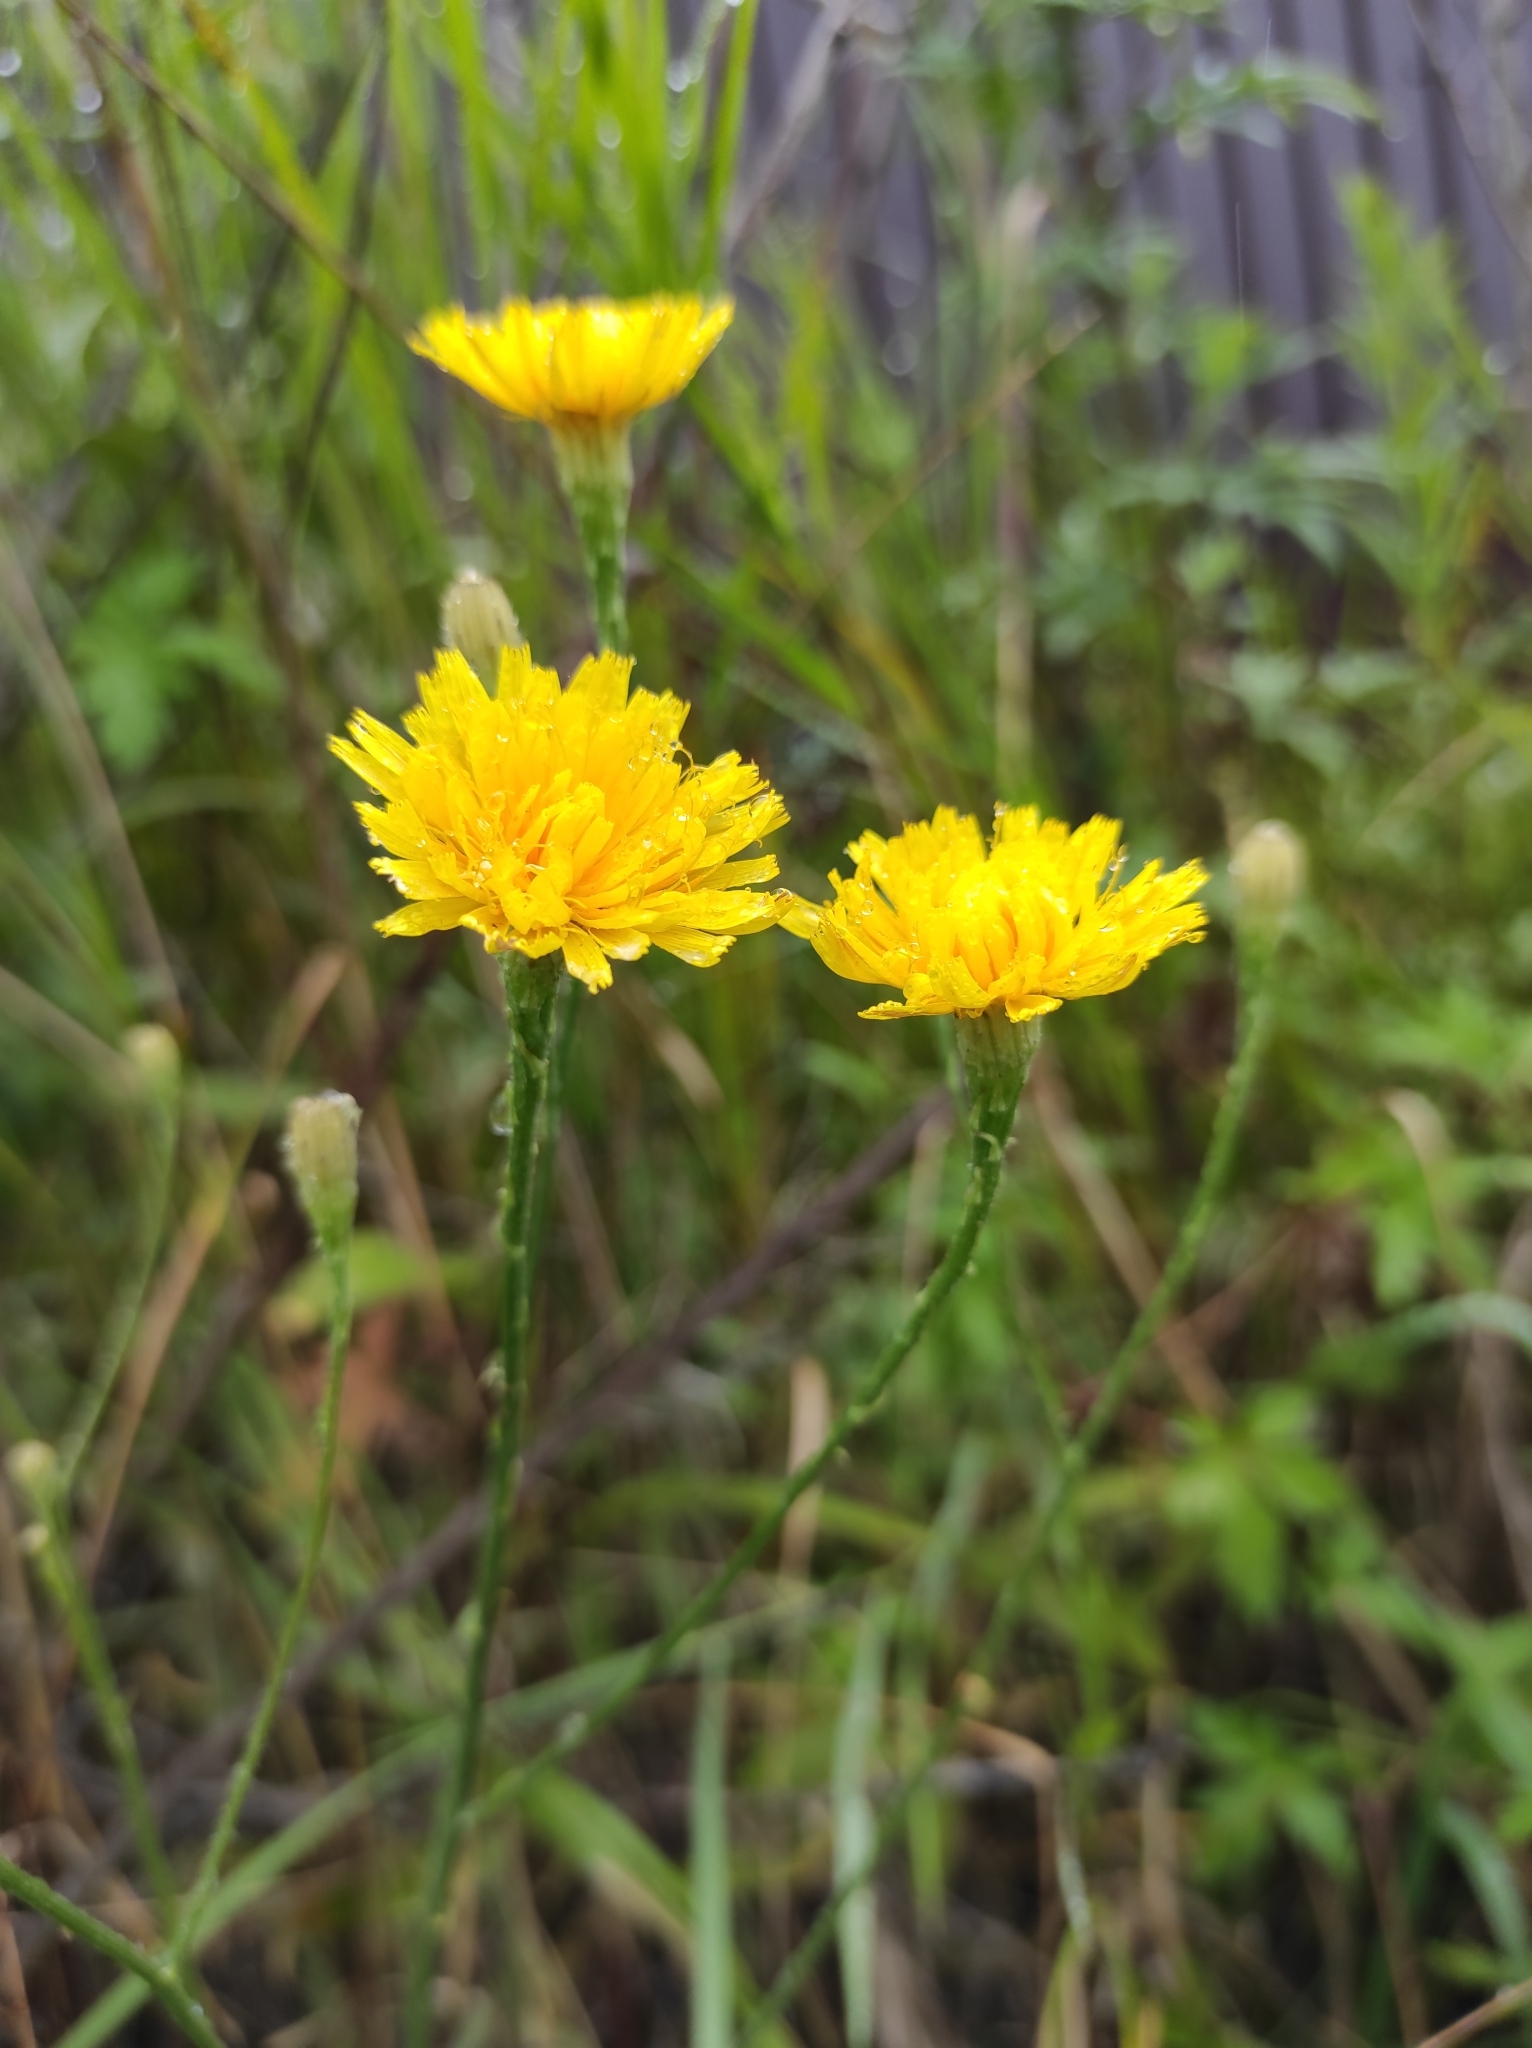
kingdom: Plantae
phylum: Tracheophyta
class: Magnoliopsida
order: Asterales
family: Asteraceae
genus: Scorzoneroides
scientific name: Scorzoneroides autumnalis
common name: Autumn hawkbit
